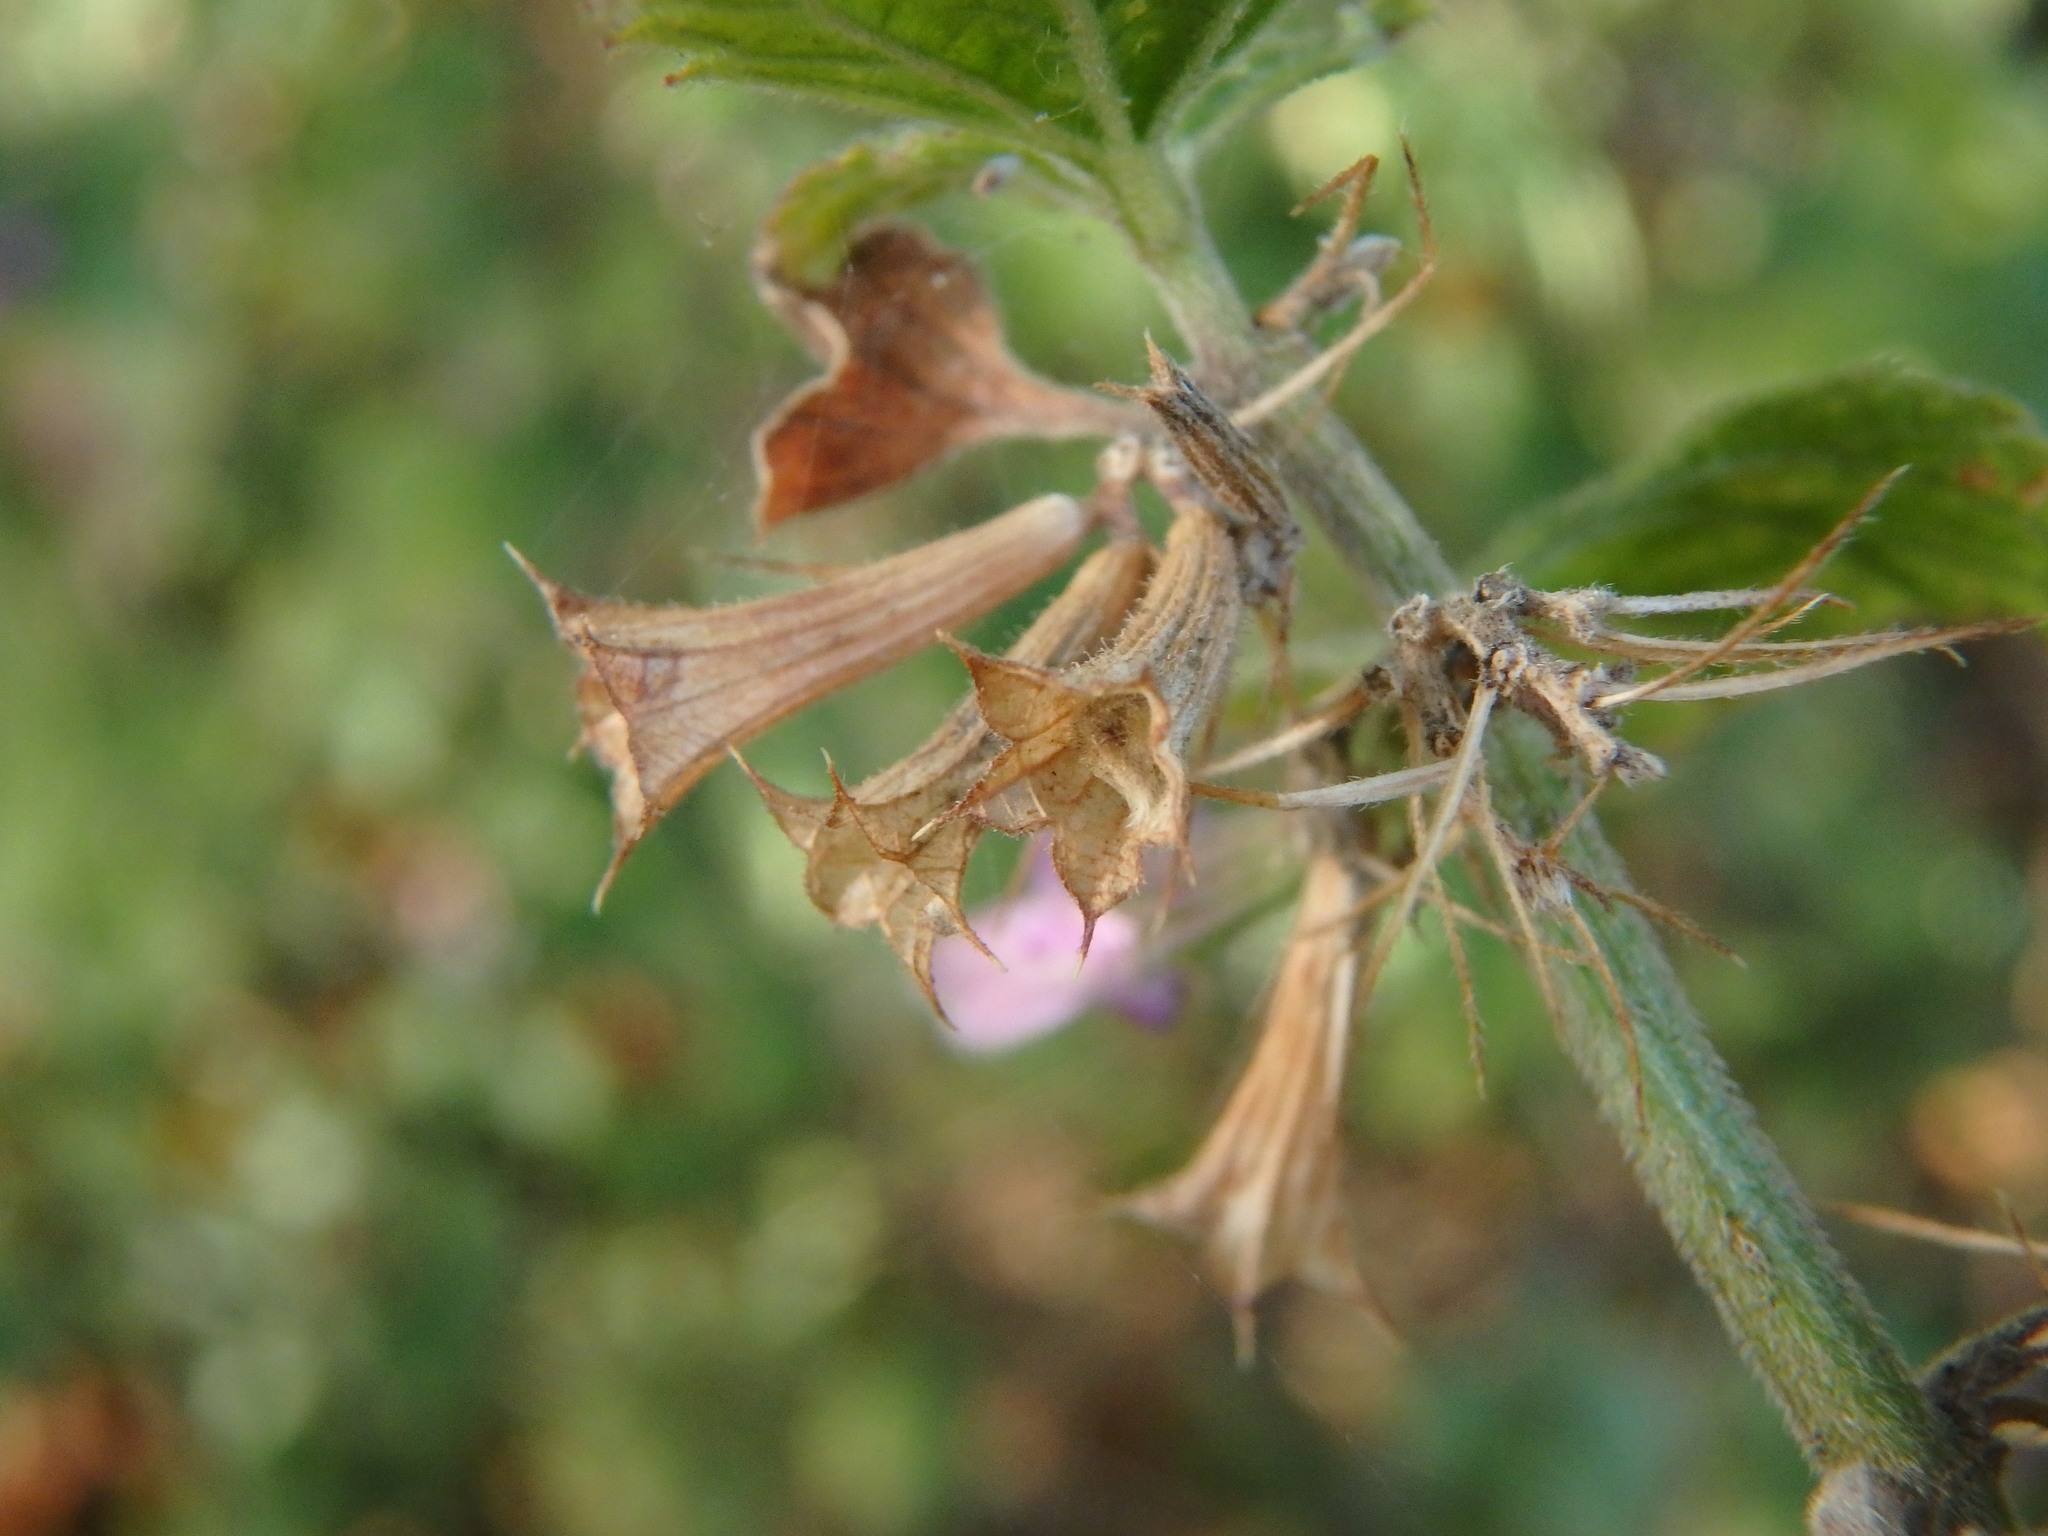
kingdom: Plantae
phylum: Tracheophyta
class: Magnoliopsida
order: Lamiales
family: Lamiaceae
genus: Ballota
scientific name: Ballota nigra
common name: Black horehound
